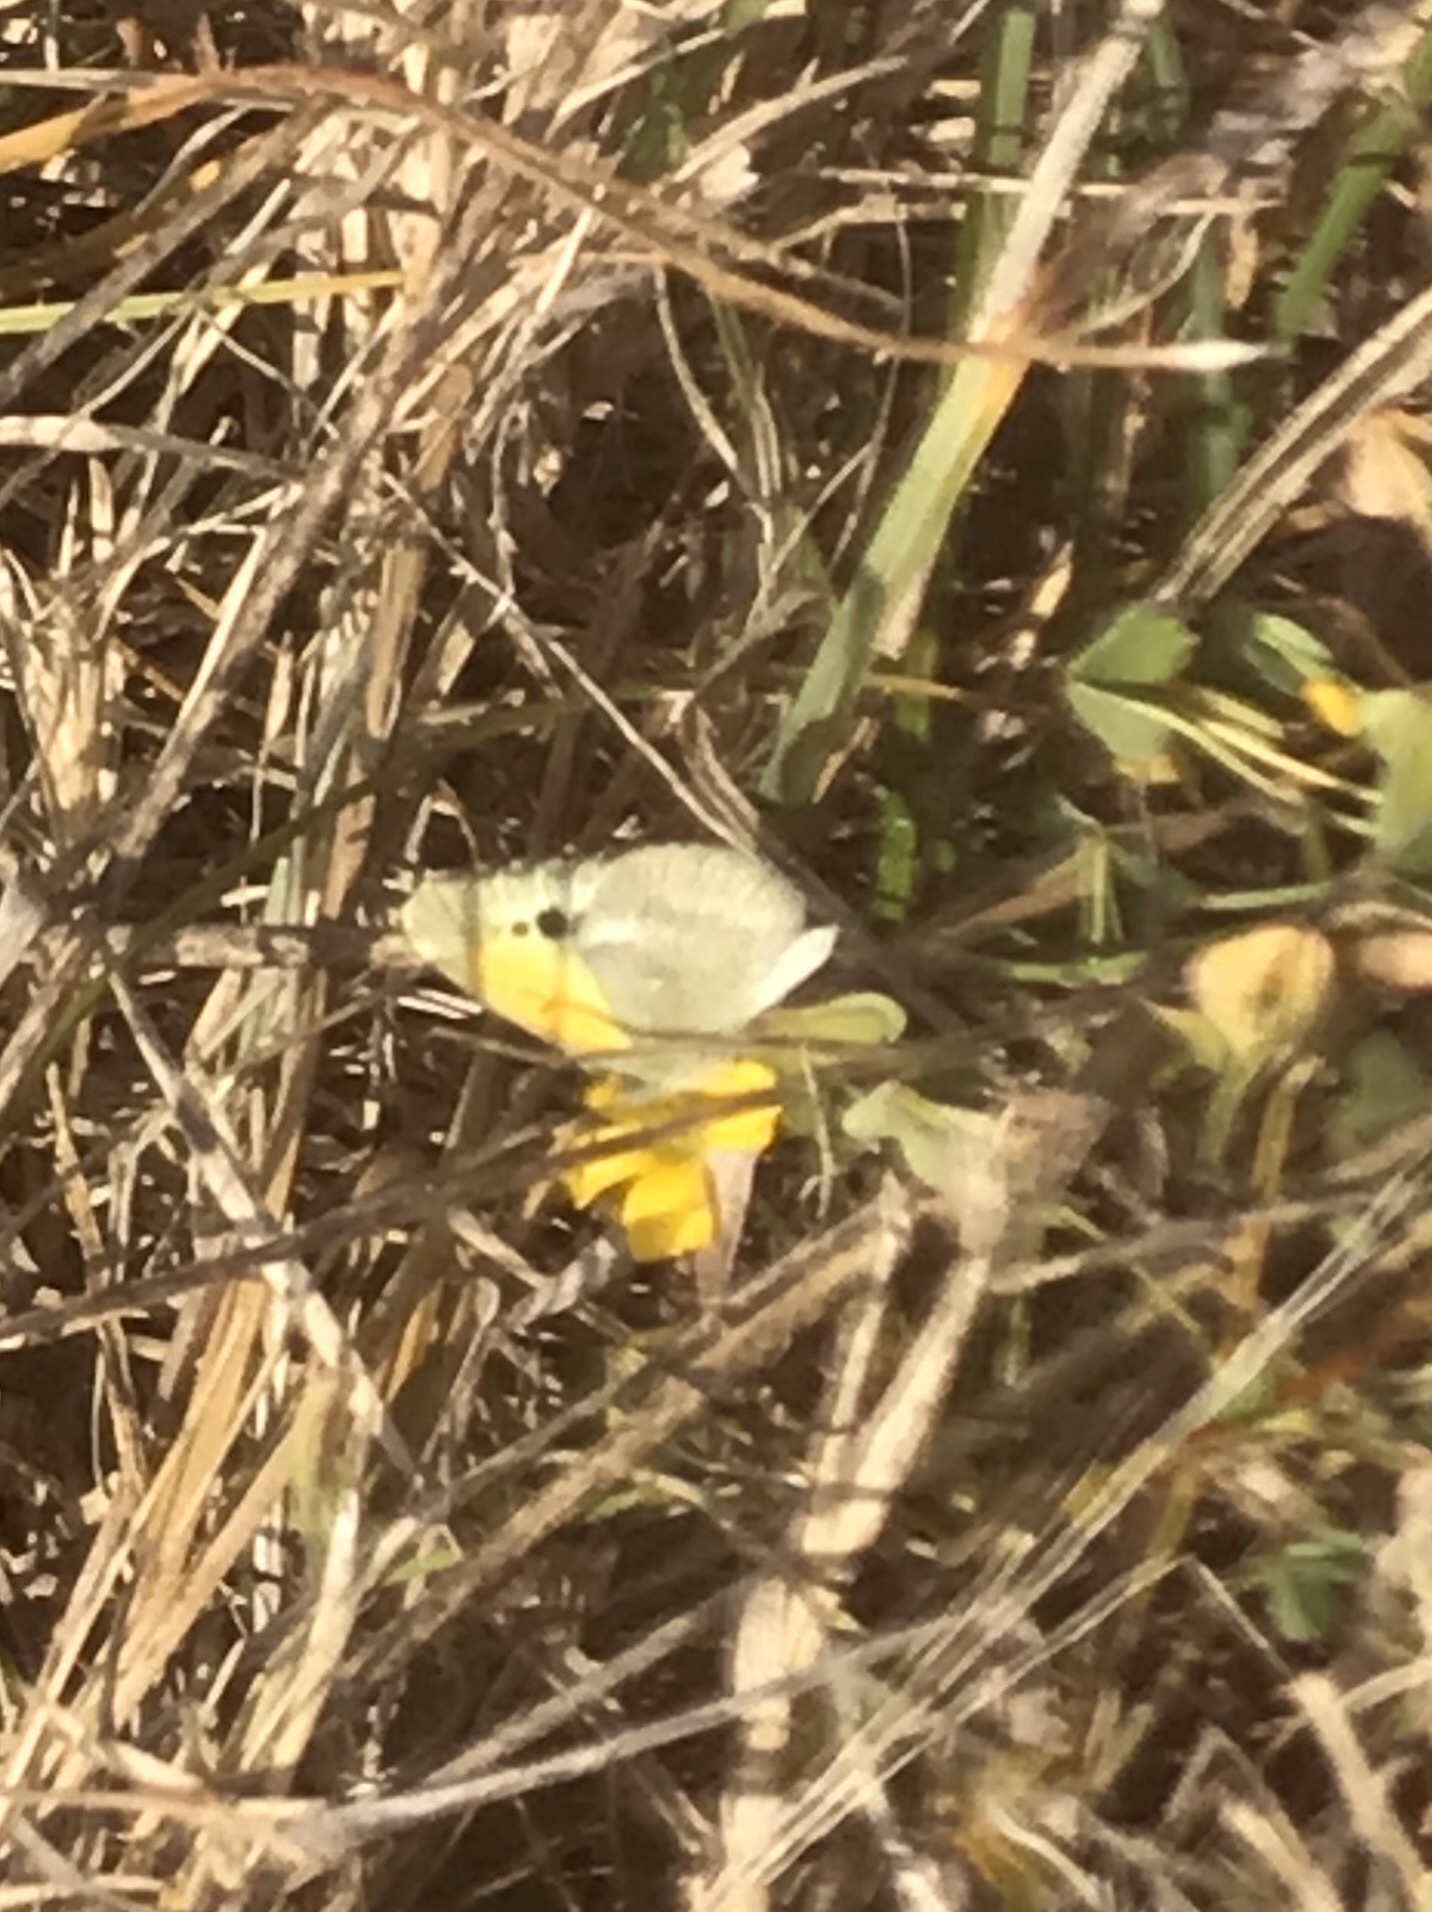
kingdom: Animalia
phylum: Arthropoda
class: Insecta
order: Lepidoptera
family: Pieridae
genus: Nathalis
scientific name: Nathalis iole
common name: Dainty sulphur
